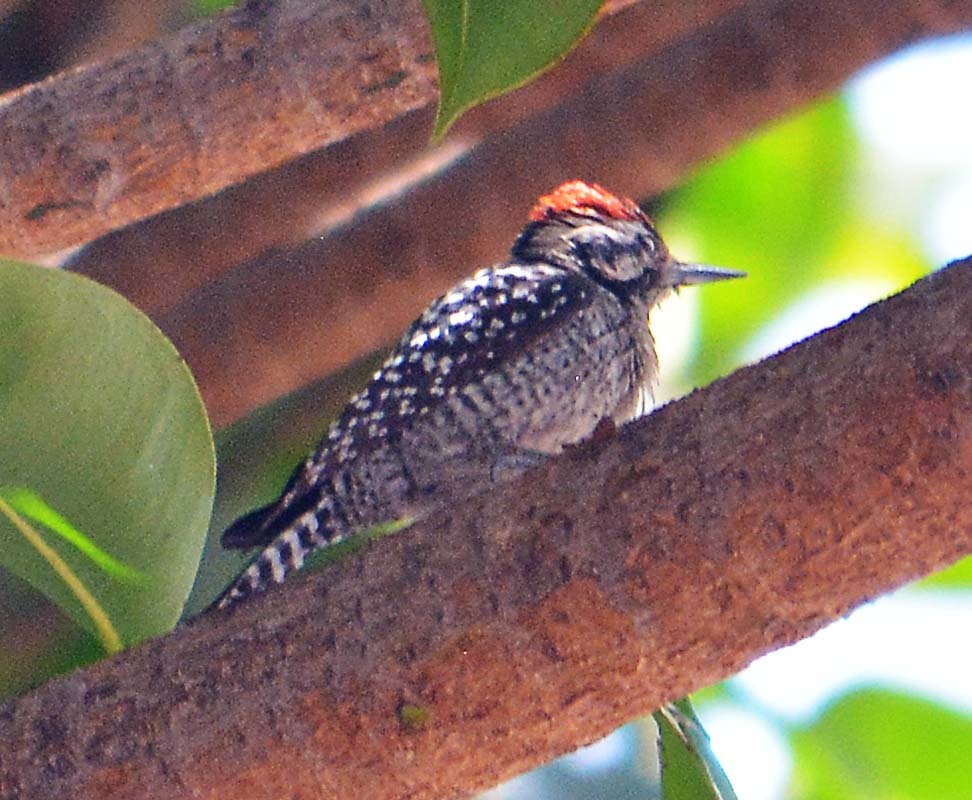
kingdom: Animalia
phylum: Chordata
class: Aves
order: Piciformes
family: Picidae
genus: Dryobates
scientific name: Dryobates scalaris
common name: Ladder-backed woodpecker
